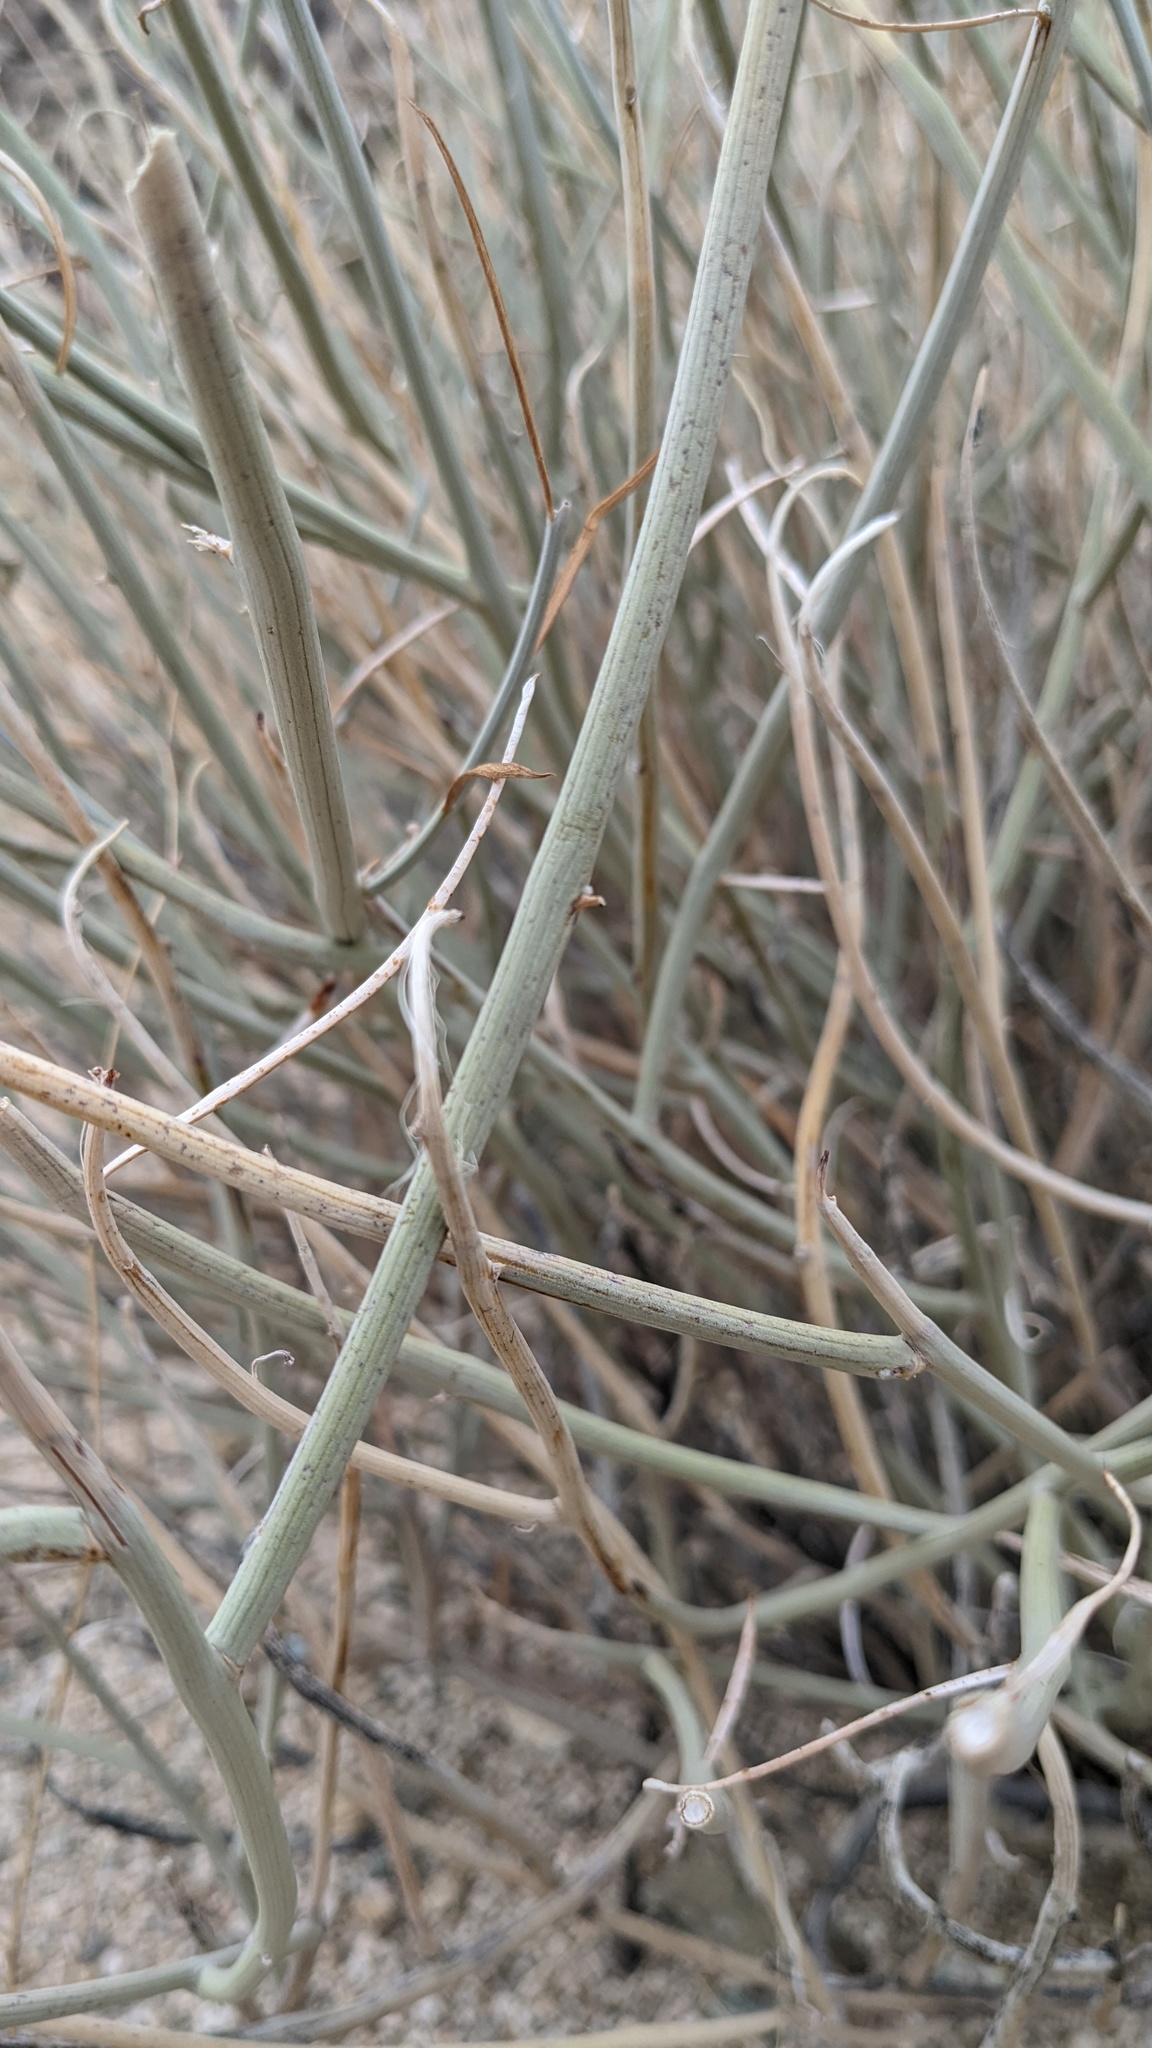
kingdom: Plantae
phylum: Tracheophyta
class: Magnoliopsida
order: Fabales
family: Fabaceae
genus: Senna
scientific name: Senna armata
